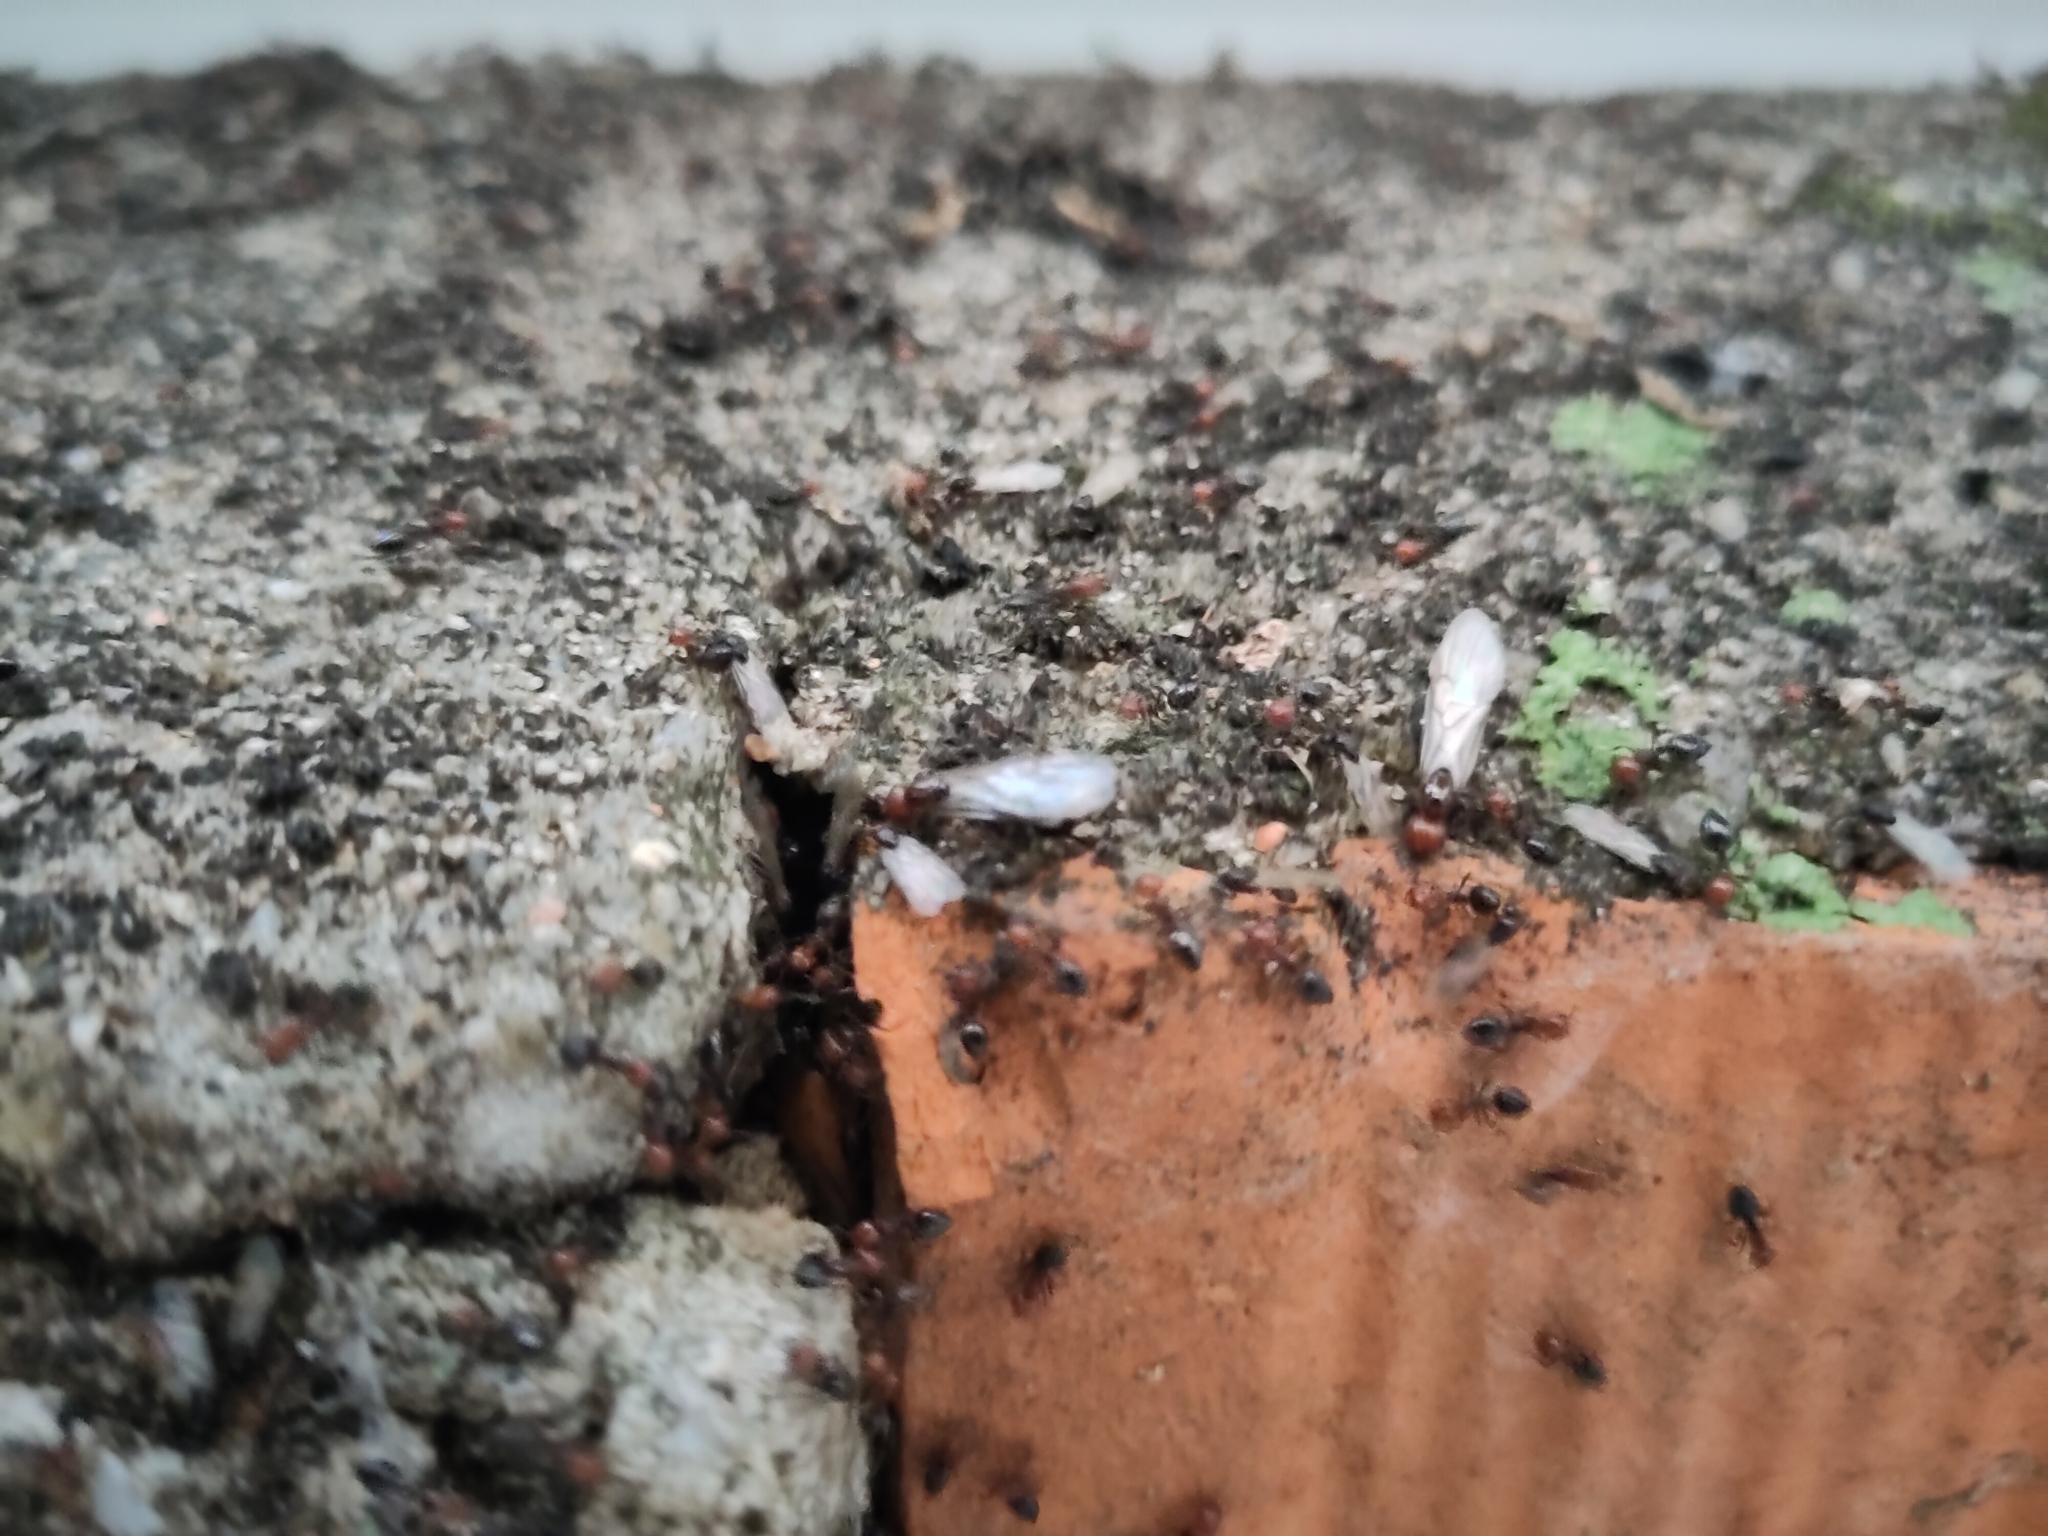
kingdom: Animalia
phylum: Arthropoda
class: Insecta
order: Hymenoptera
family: Formicidae
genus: Crematogaster
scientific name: Crematogaster scutellaris
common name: Fourmi du liège
